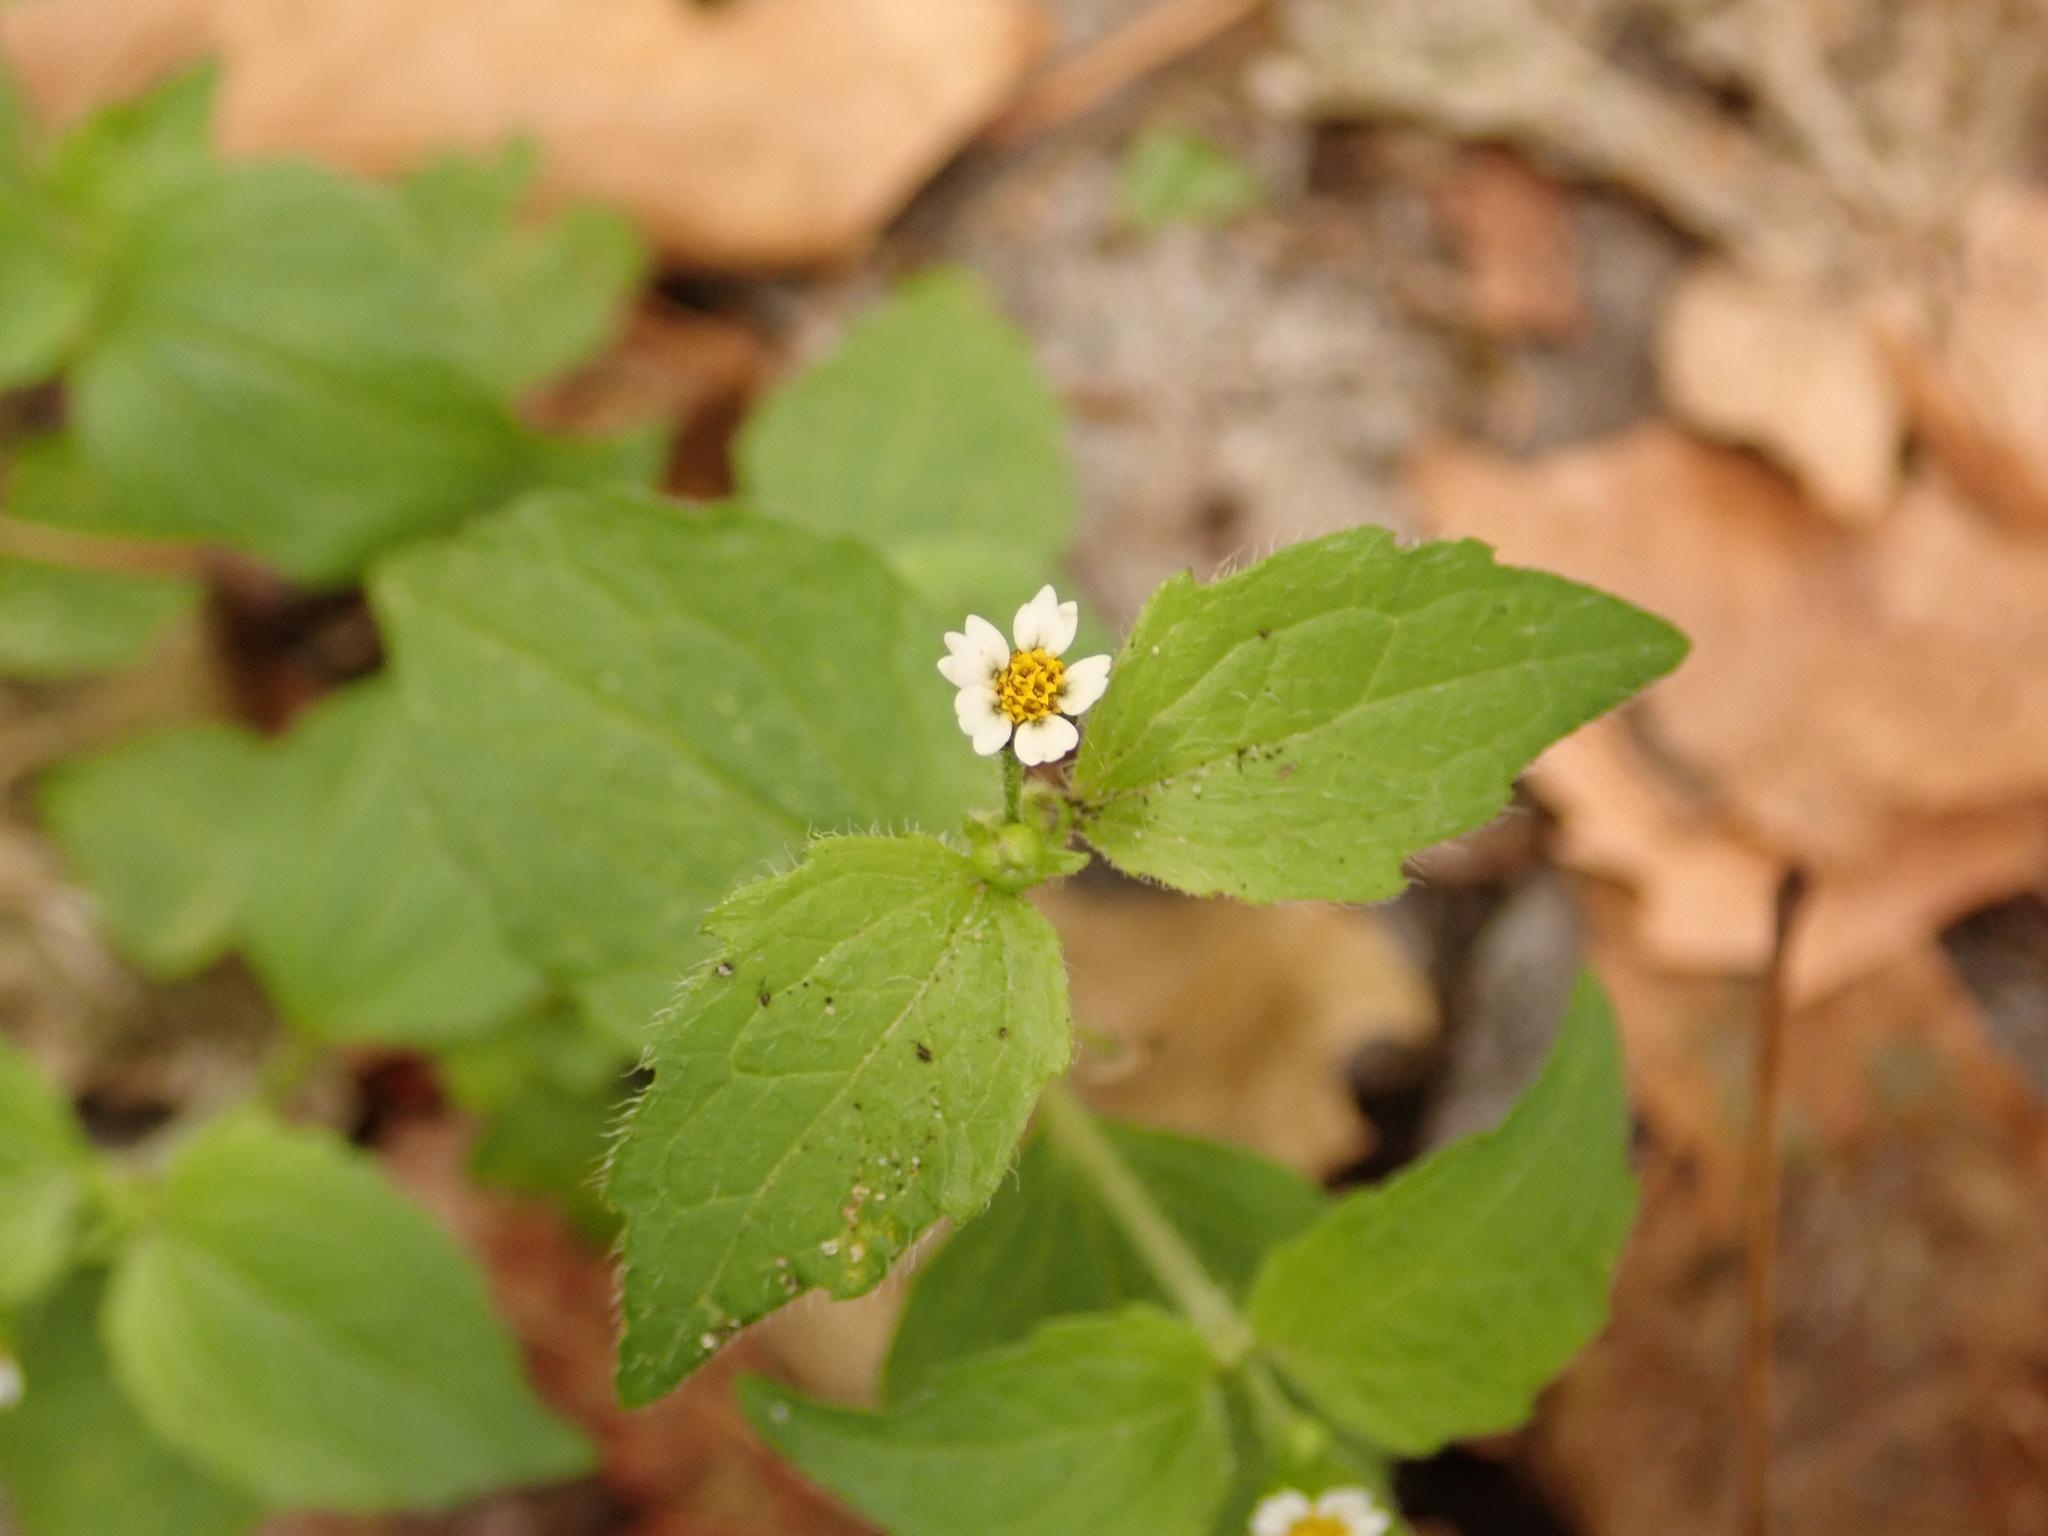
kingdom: Plantae
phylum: Tracheophyta
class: Magnoliopsida
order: Asterales
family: Asteraceae
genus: Galinsoga
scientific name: Galinsoga quadriradiata
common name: Shaggy soldier
